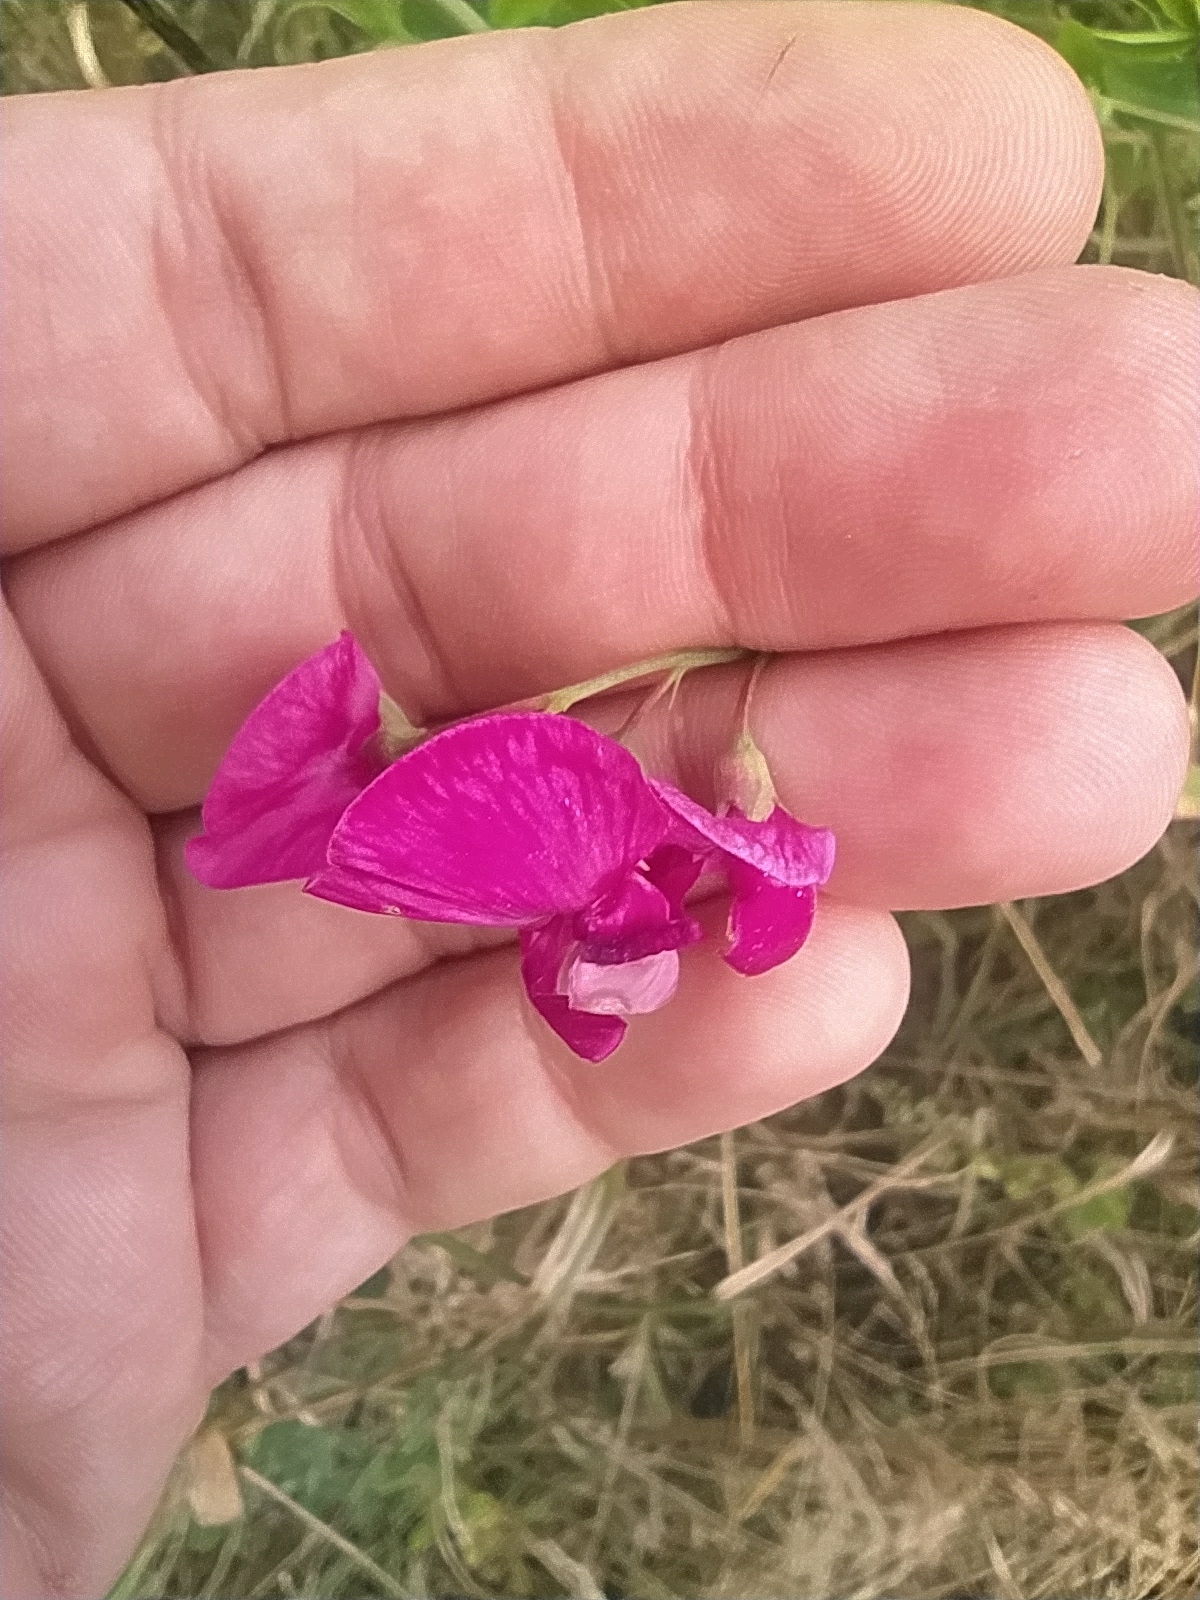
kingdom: Plantae
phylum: Tracheophyta
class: Magnoliopsida
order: Fabales
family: Fabaceae
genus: Lathyrus
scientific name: Lathyrus tuberosus
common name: Tuberous pea
